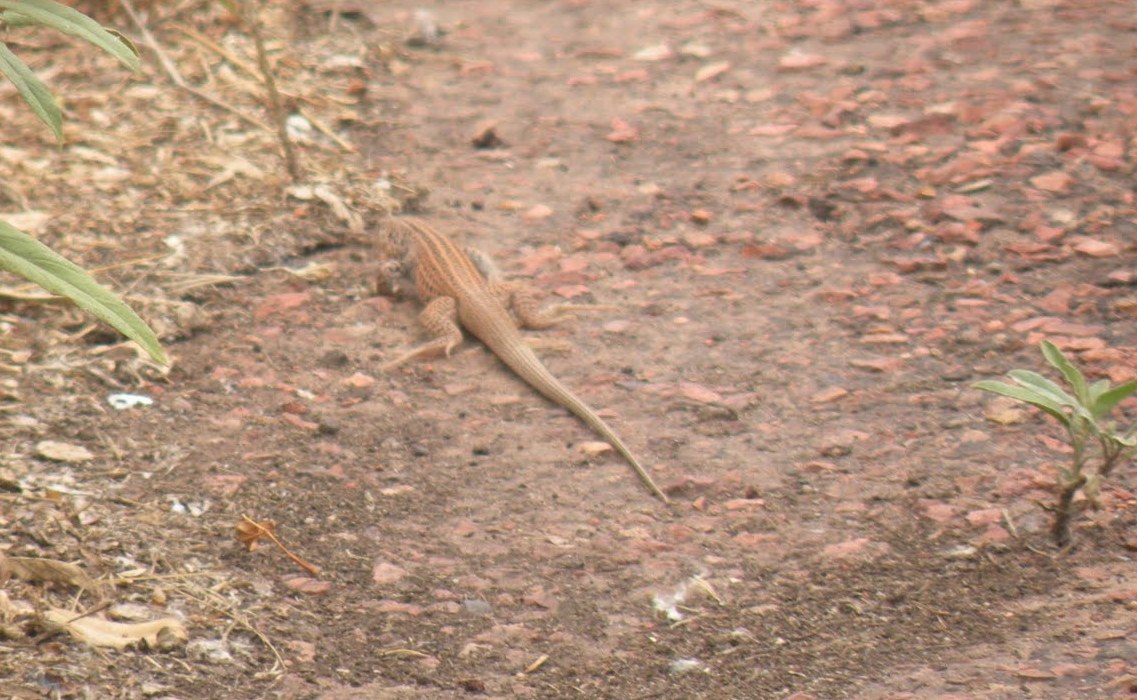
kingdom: Animalia
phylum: Chordata
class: Squamata
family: Teiidae
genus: Aspidoscelis
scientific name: Aspidoscelis tigris
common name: Tiger whiptail
